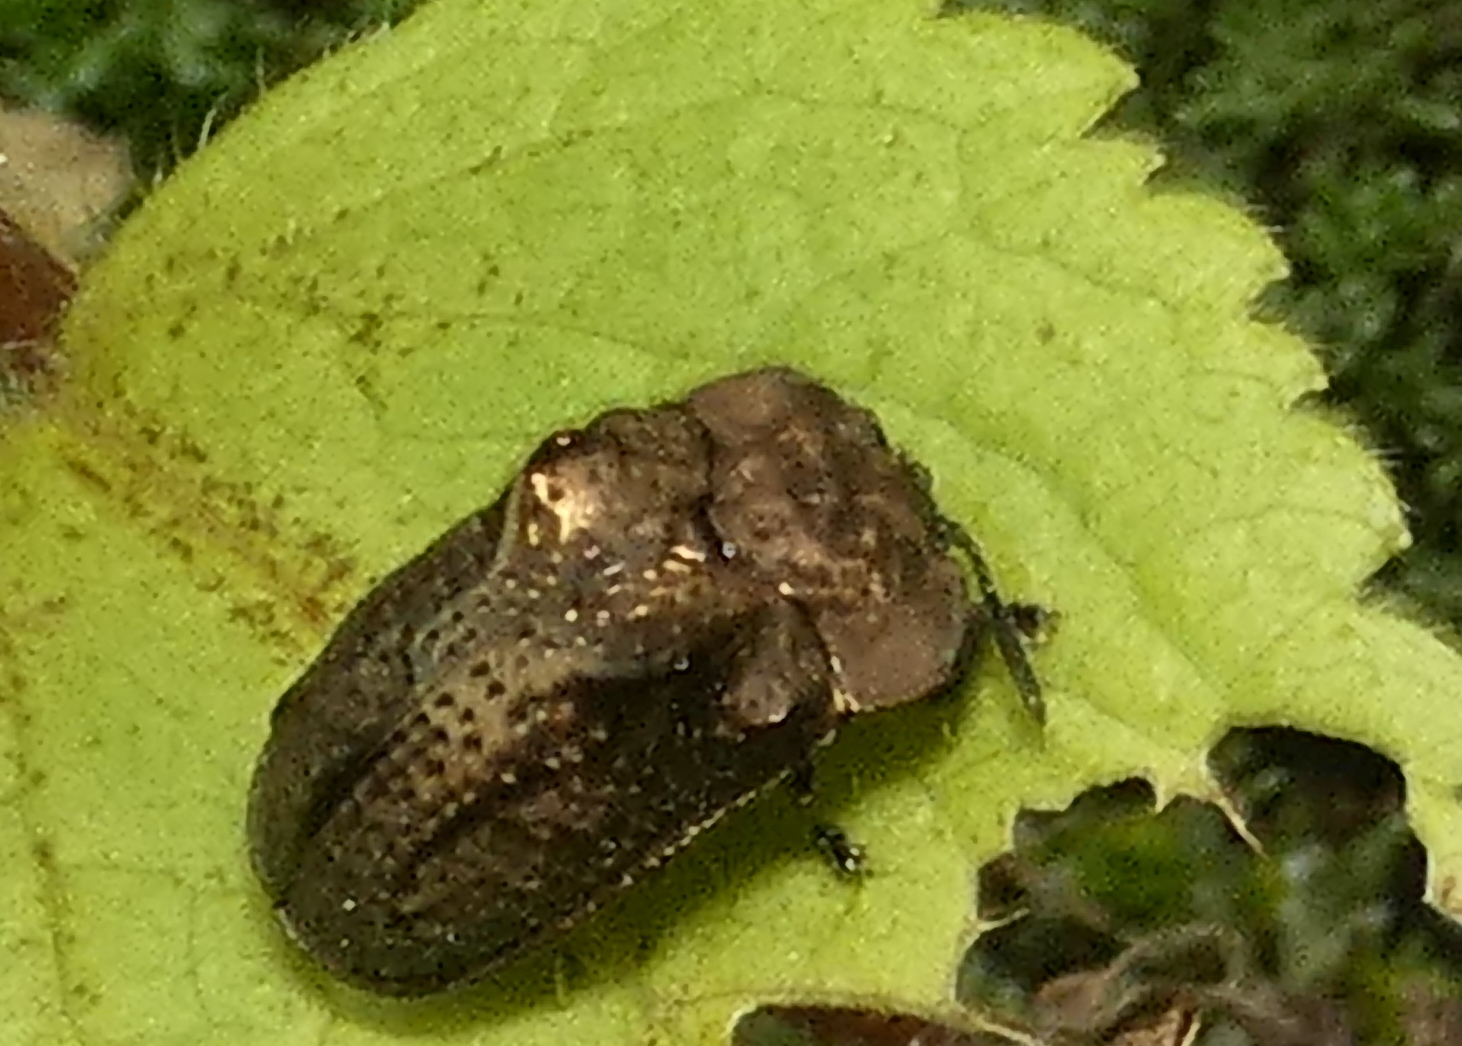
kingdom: Animalia
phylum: Arthropoda
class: Insecta
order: Coleoptera
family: Chrysomelidae
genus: Chlamydocassis
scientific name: Chlamydocassis bicornuta
